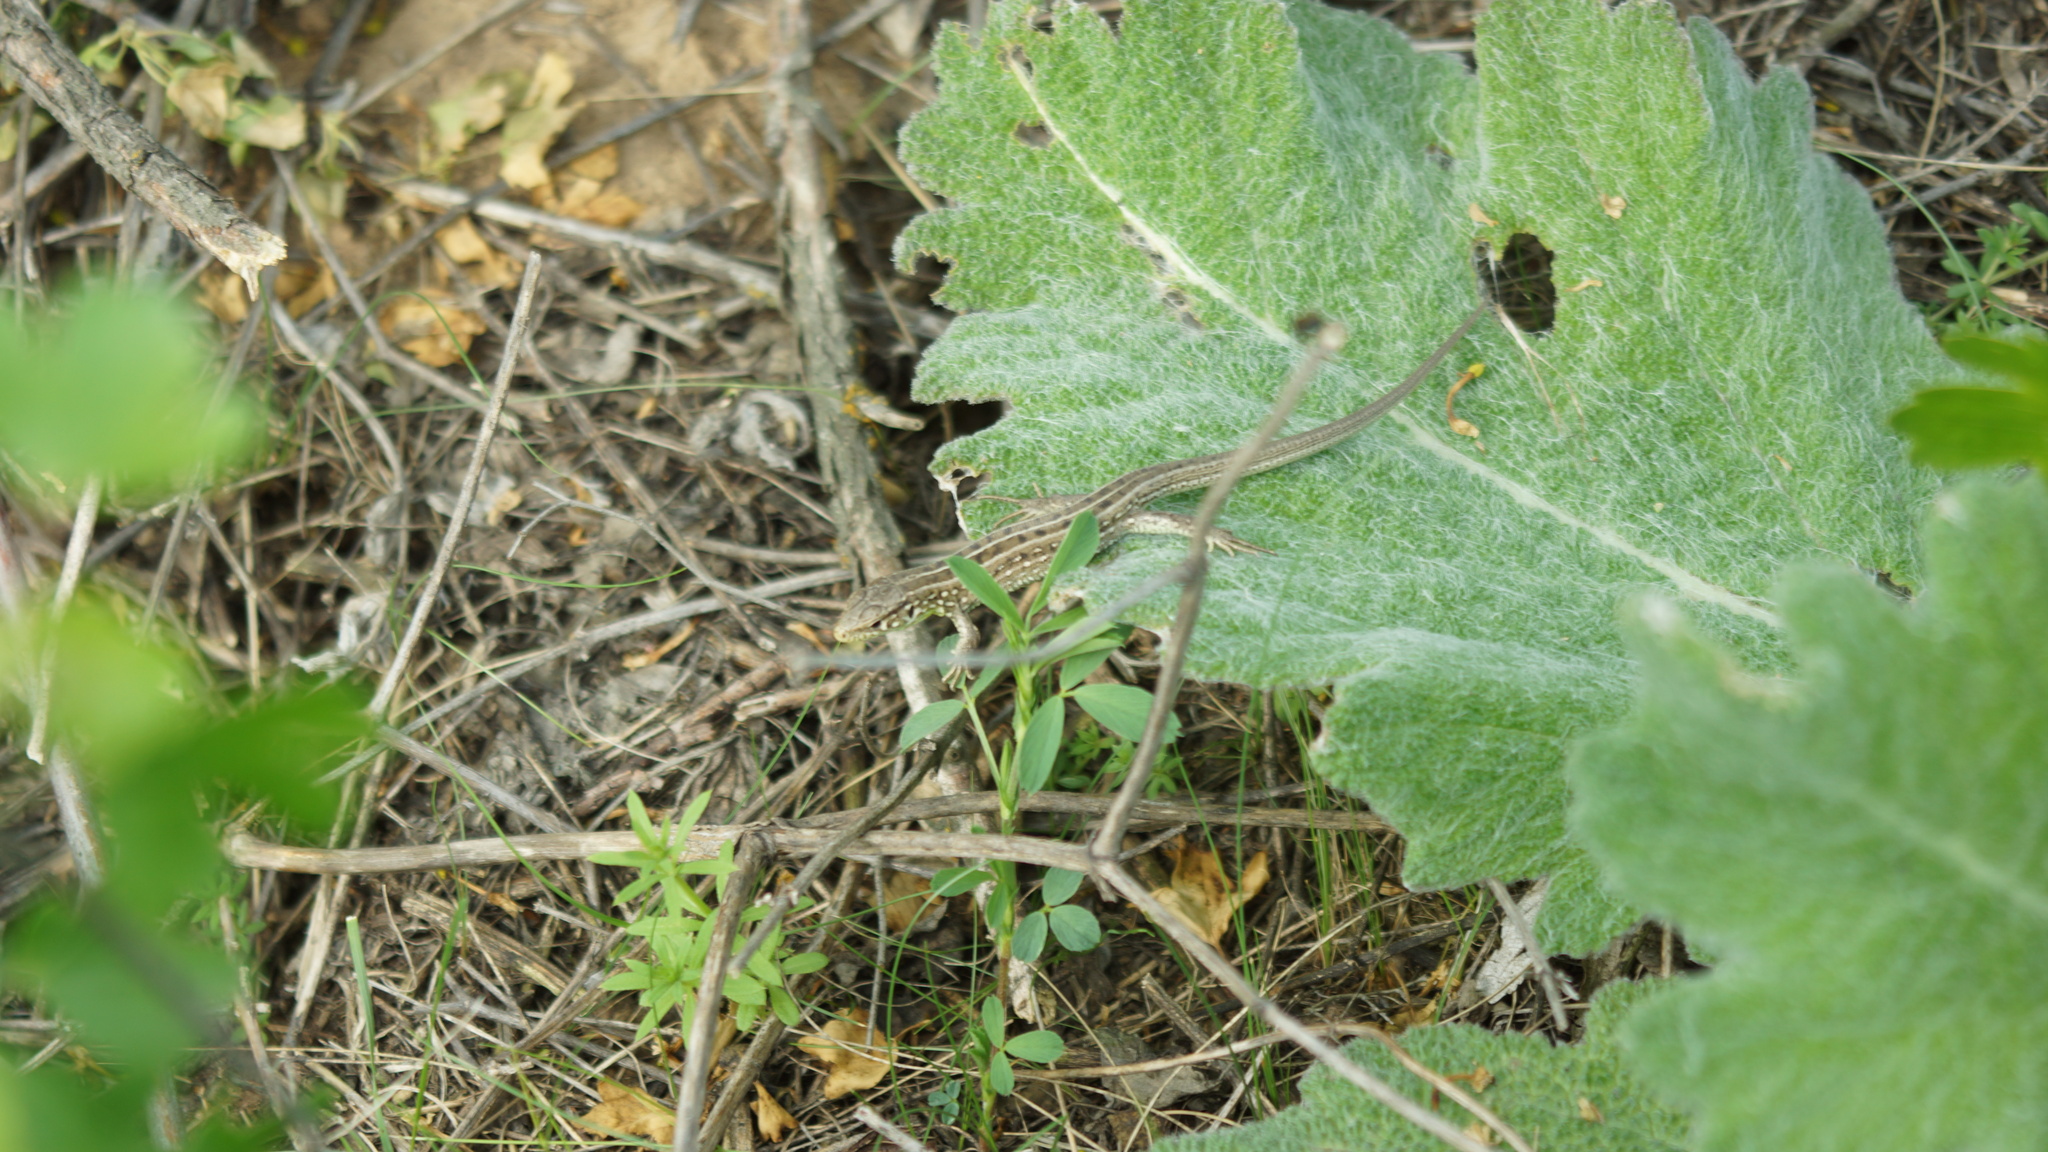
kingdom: Animalia
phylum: Chordata
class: Squamata
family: Lacertidae
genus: Lacerta
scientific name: Lacerta agilis
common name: Sand lizard
